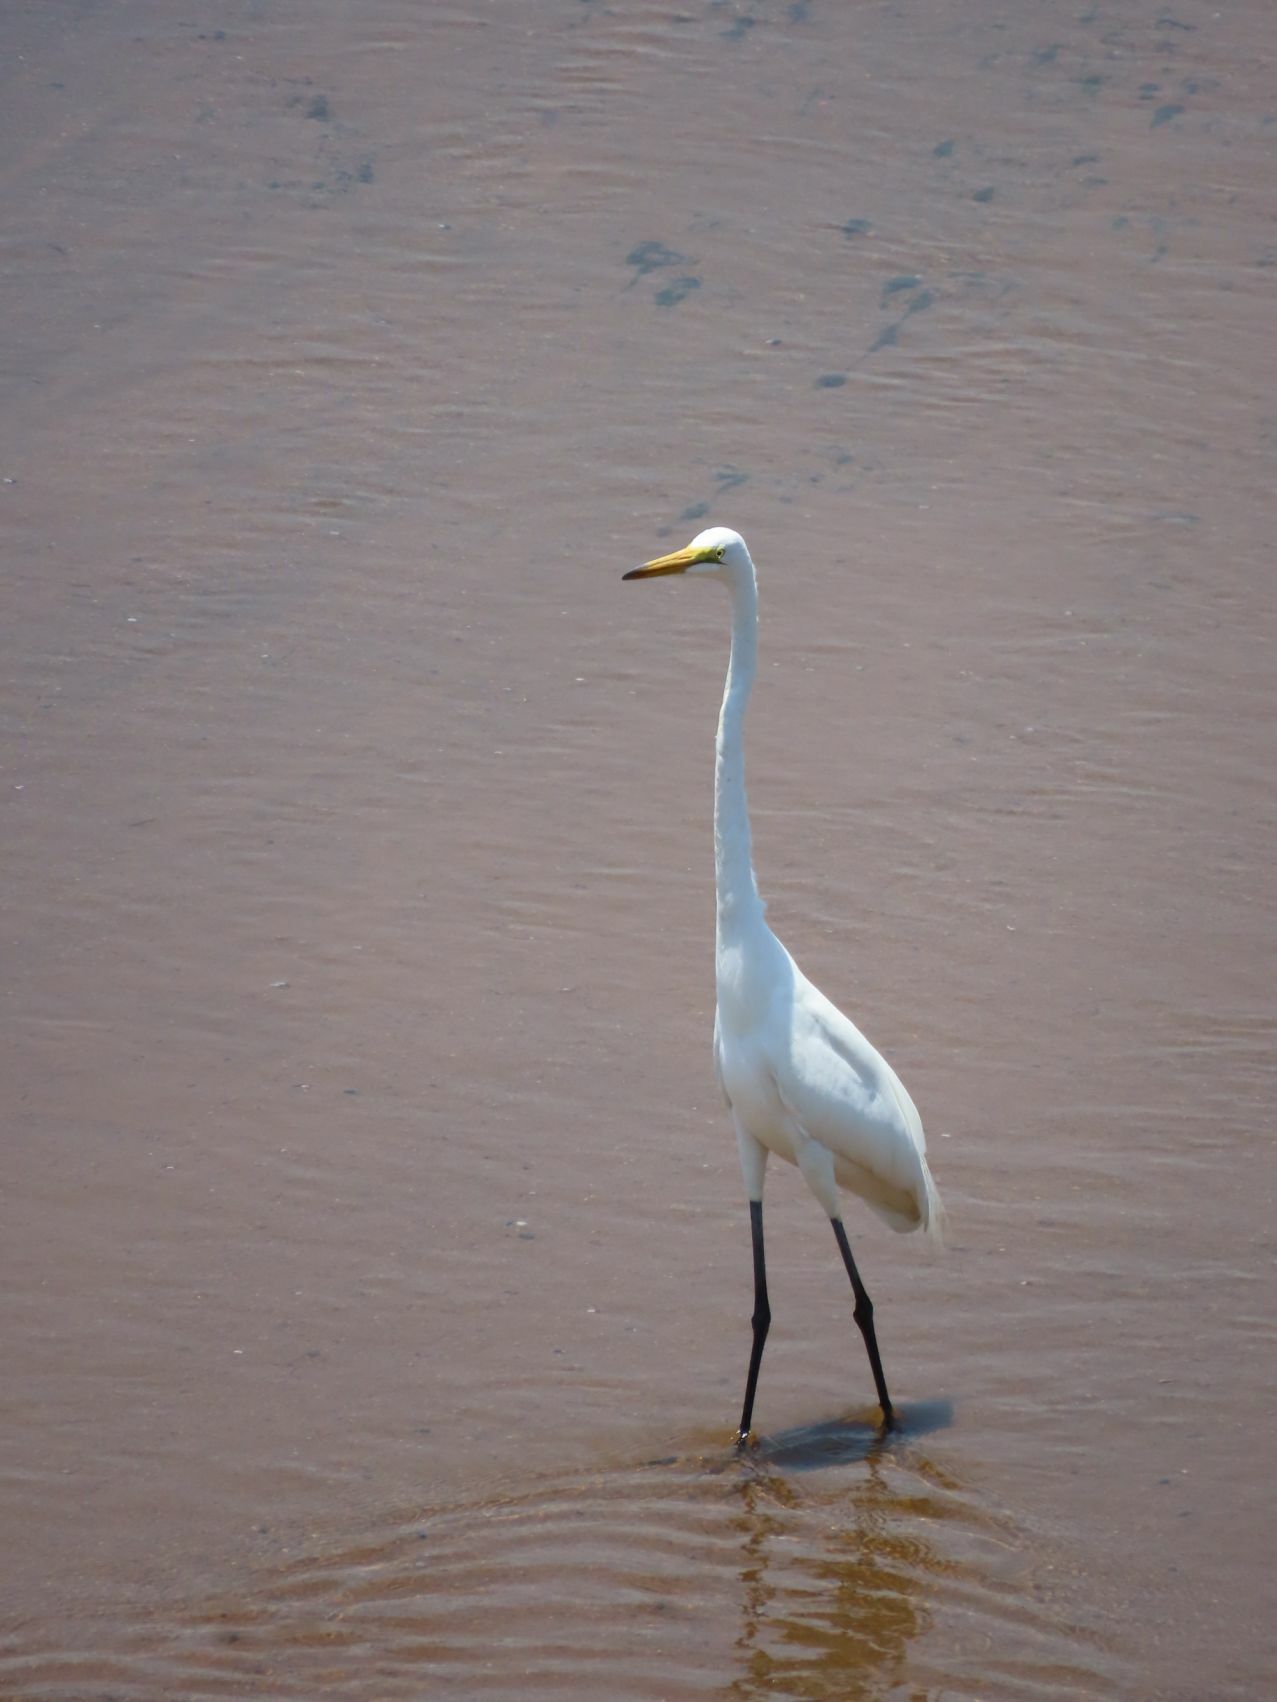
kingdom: Animalia
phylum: Chordata
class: Aves
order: Pelecaniformes
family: Ardeidae
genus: Ardea
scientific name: Ardea alba
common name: Great egret
